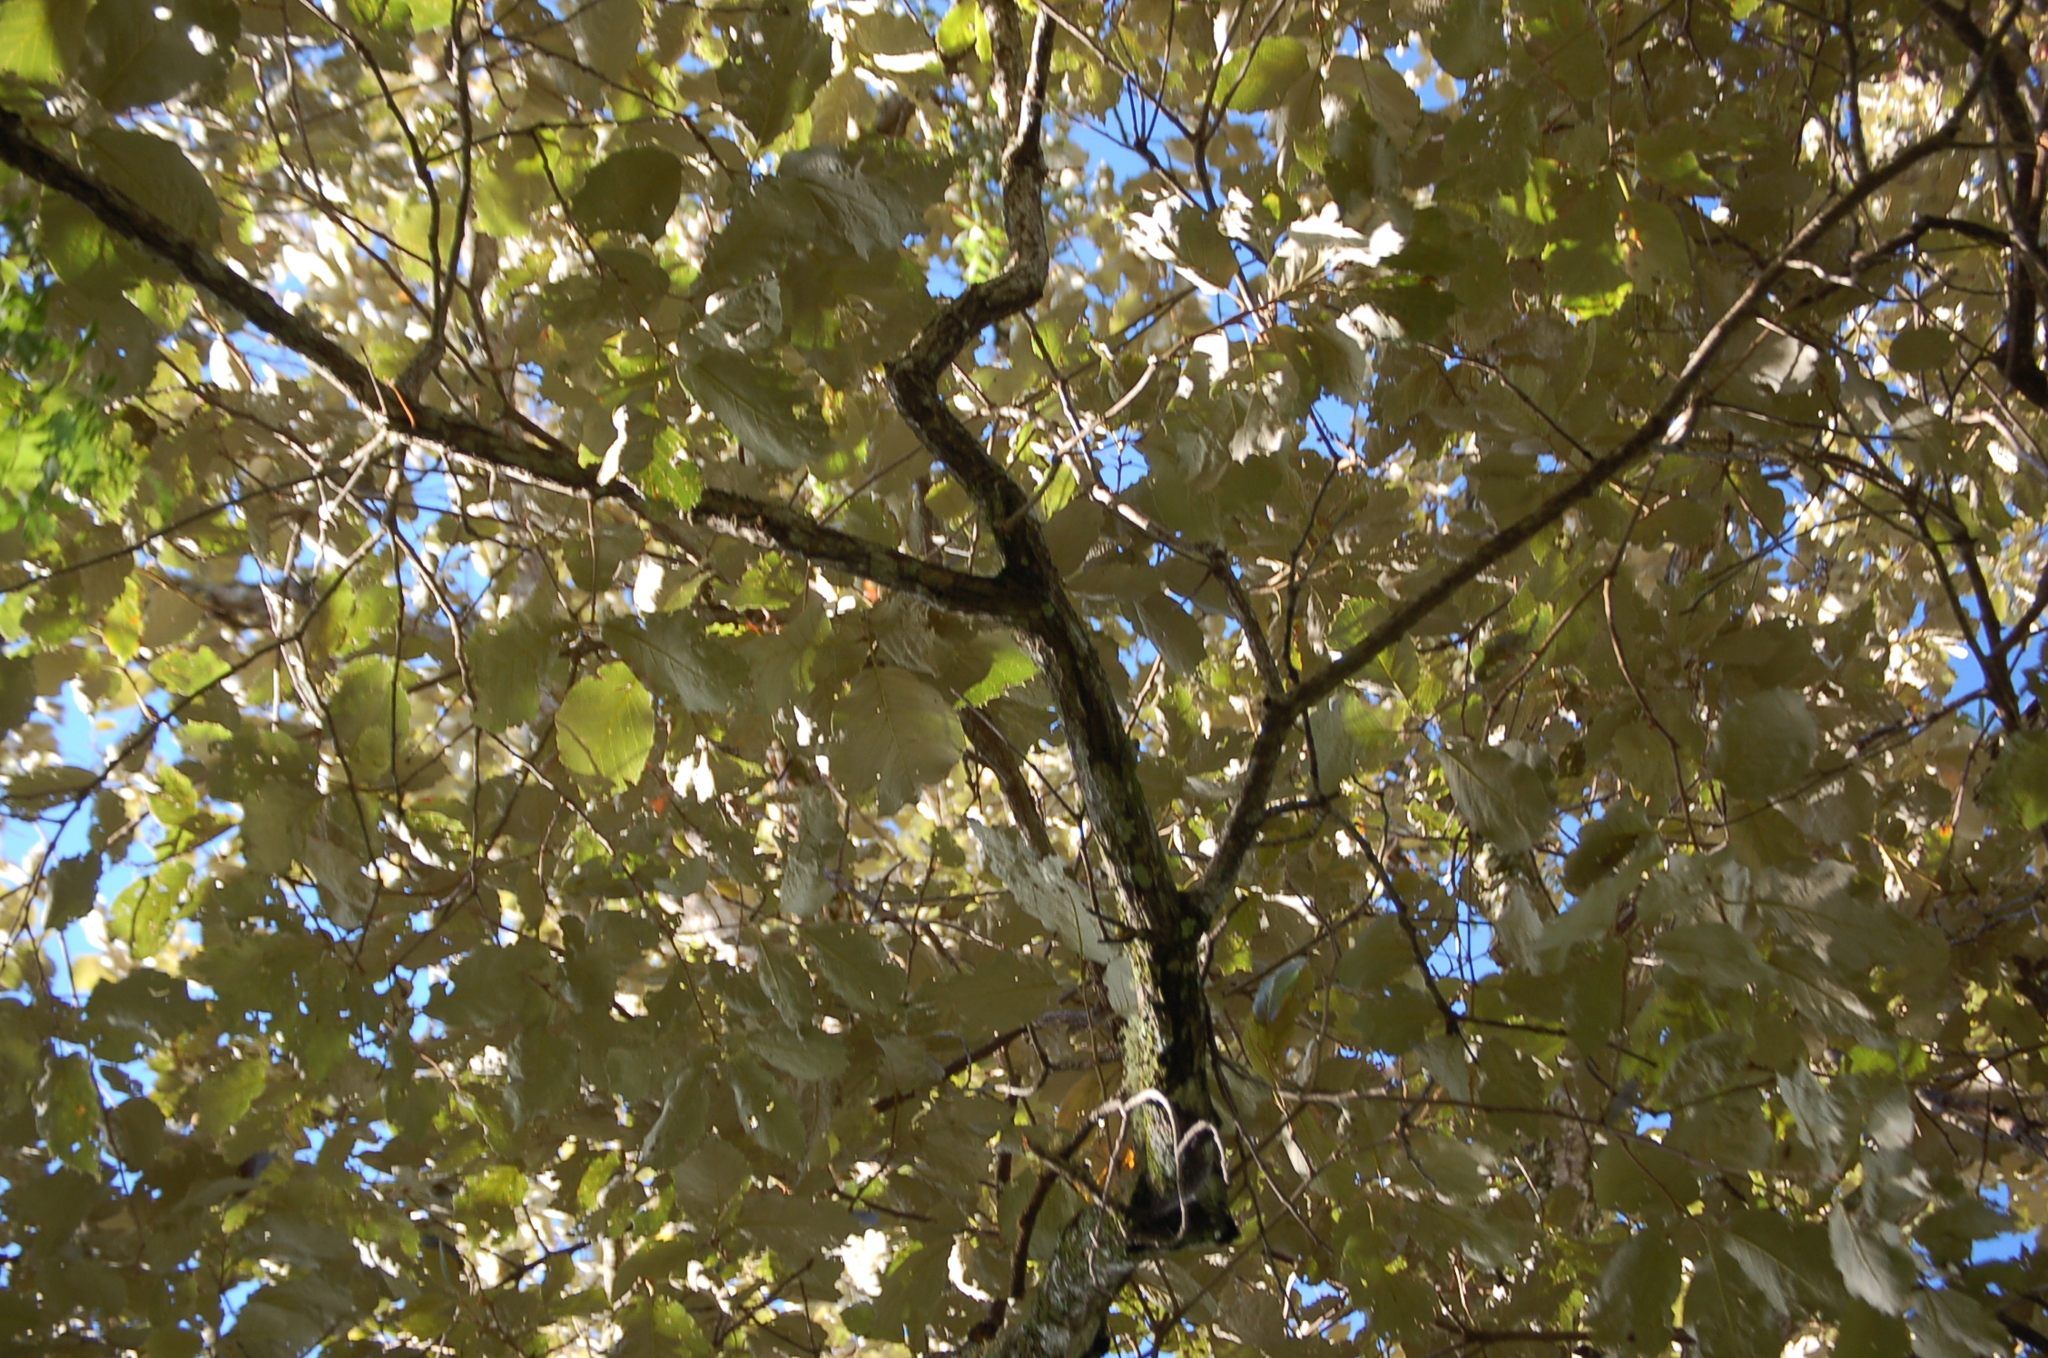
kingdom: Plantae
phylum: Tracheophyta
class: Magnoliopsida
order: Fagales
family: Fagaceae
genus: Quercus
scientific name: Quercus calophylla
